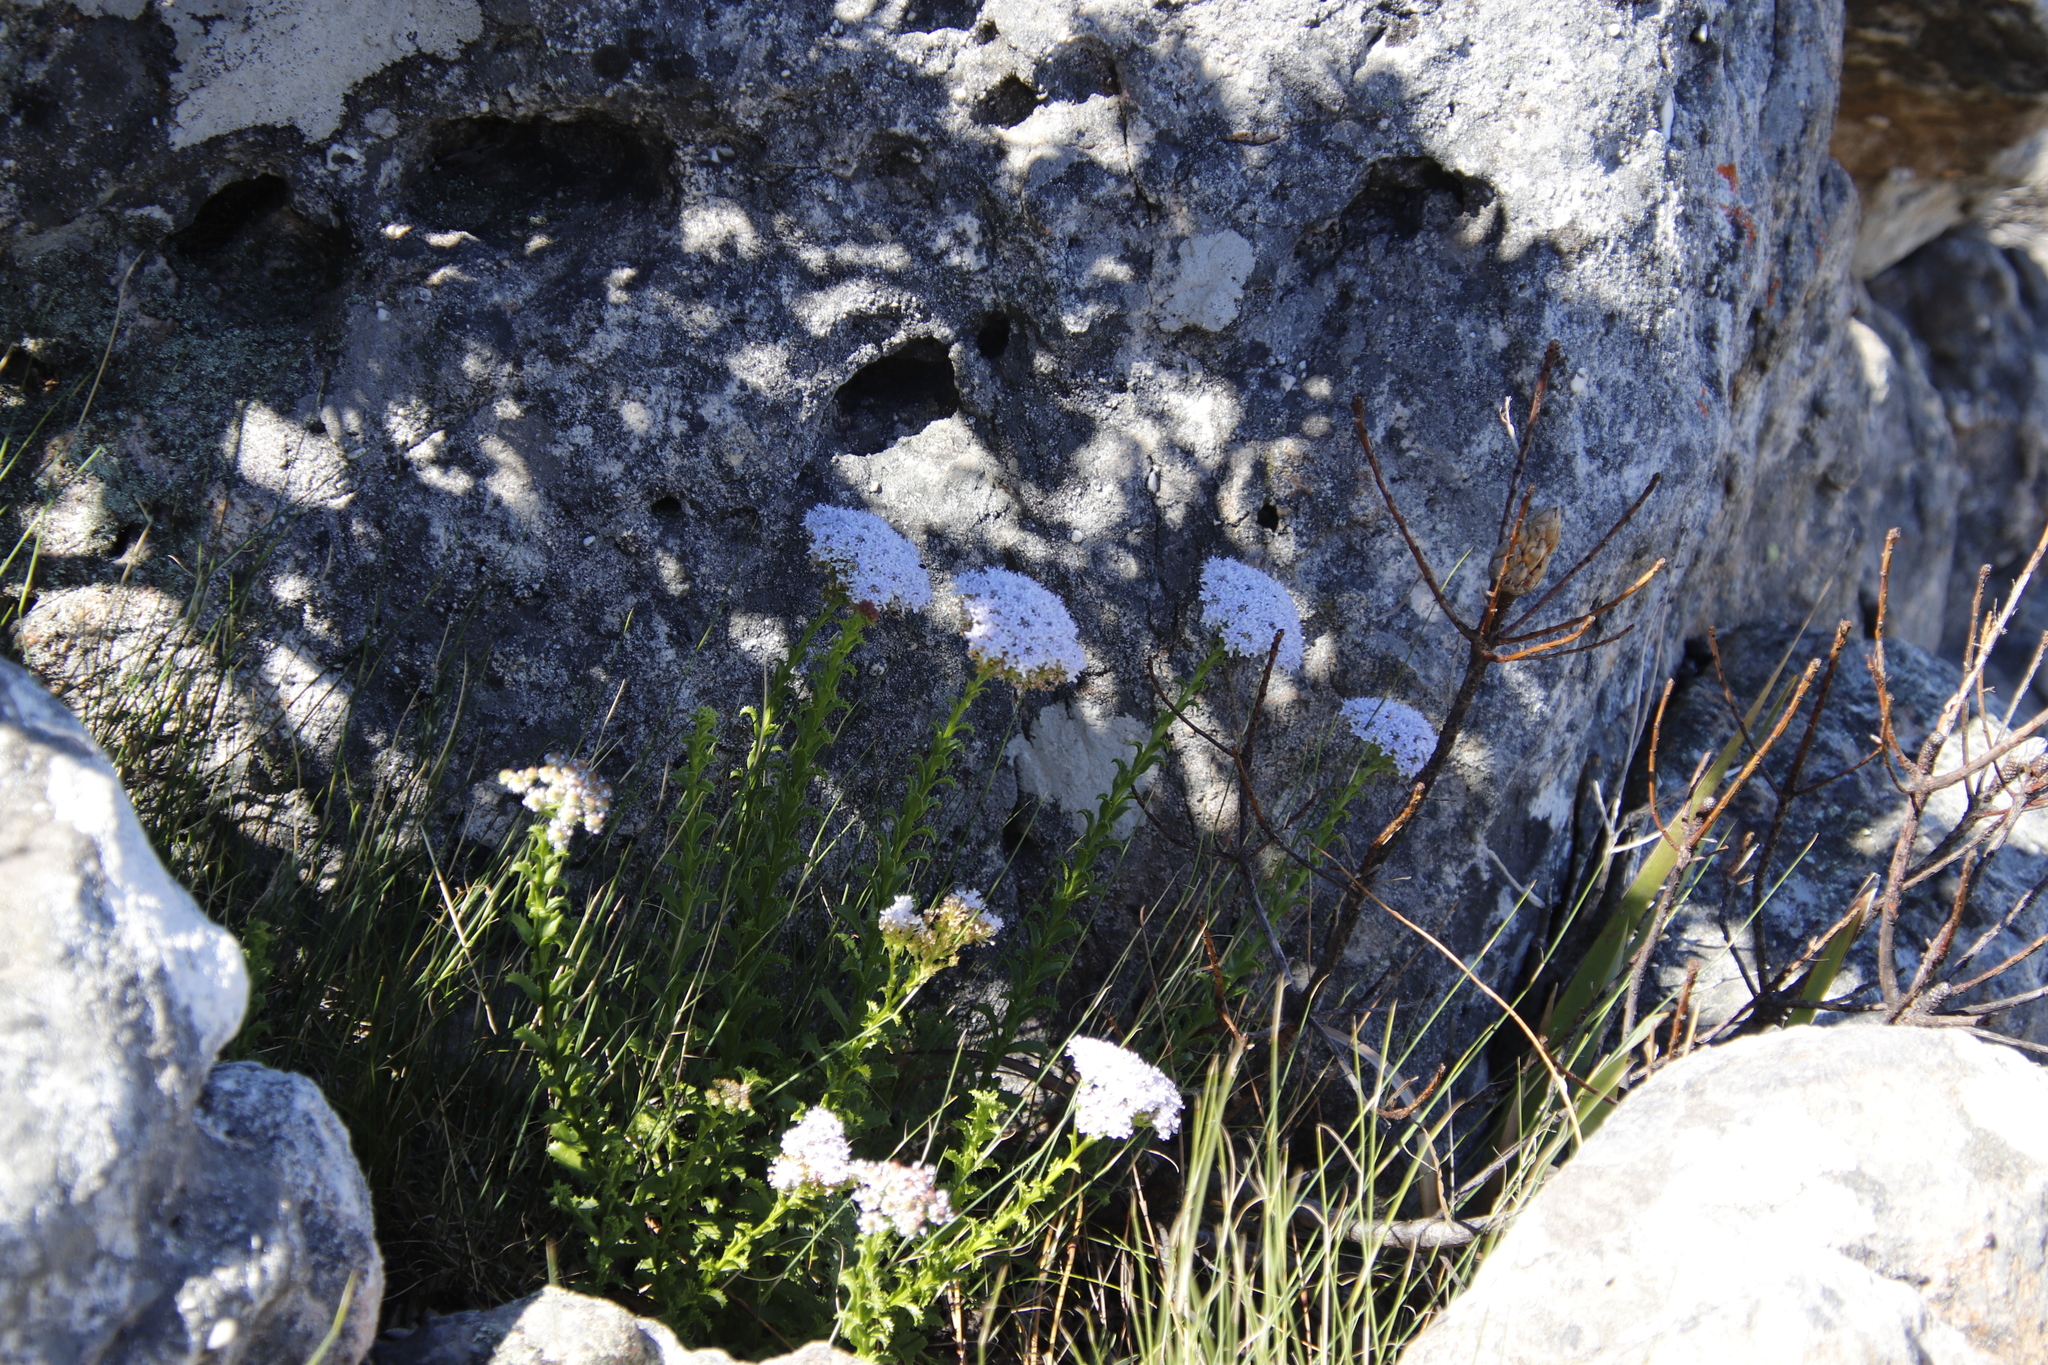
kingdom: Plantae
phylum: Tracheophyta
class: Magnoliopsida
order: Lamiales
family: Scrophulariaceae
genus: Pseudoselago
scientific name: Pseudoselago serrata
